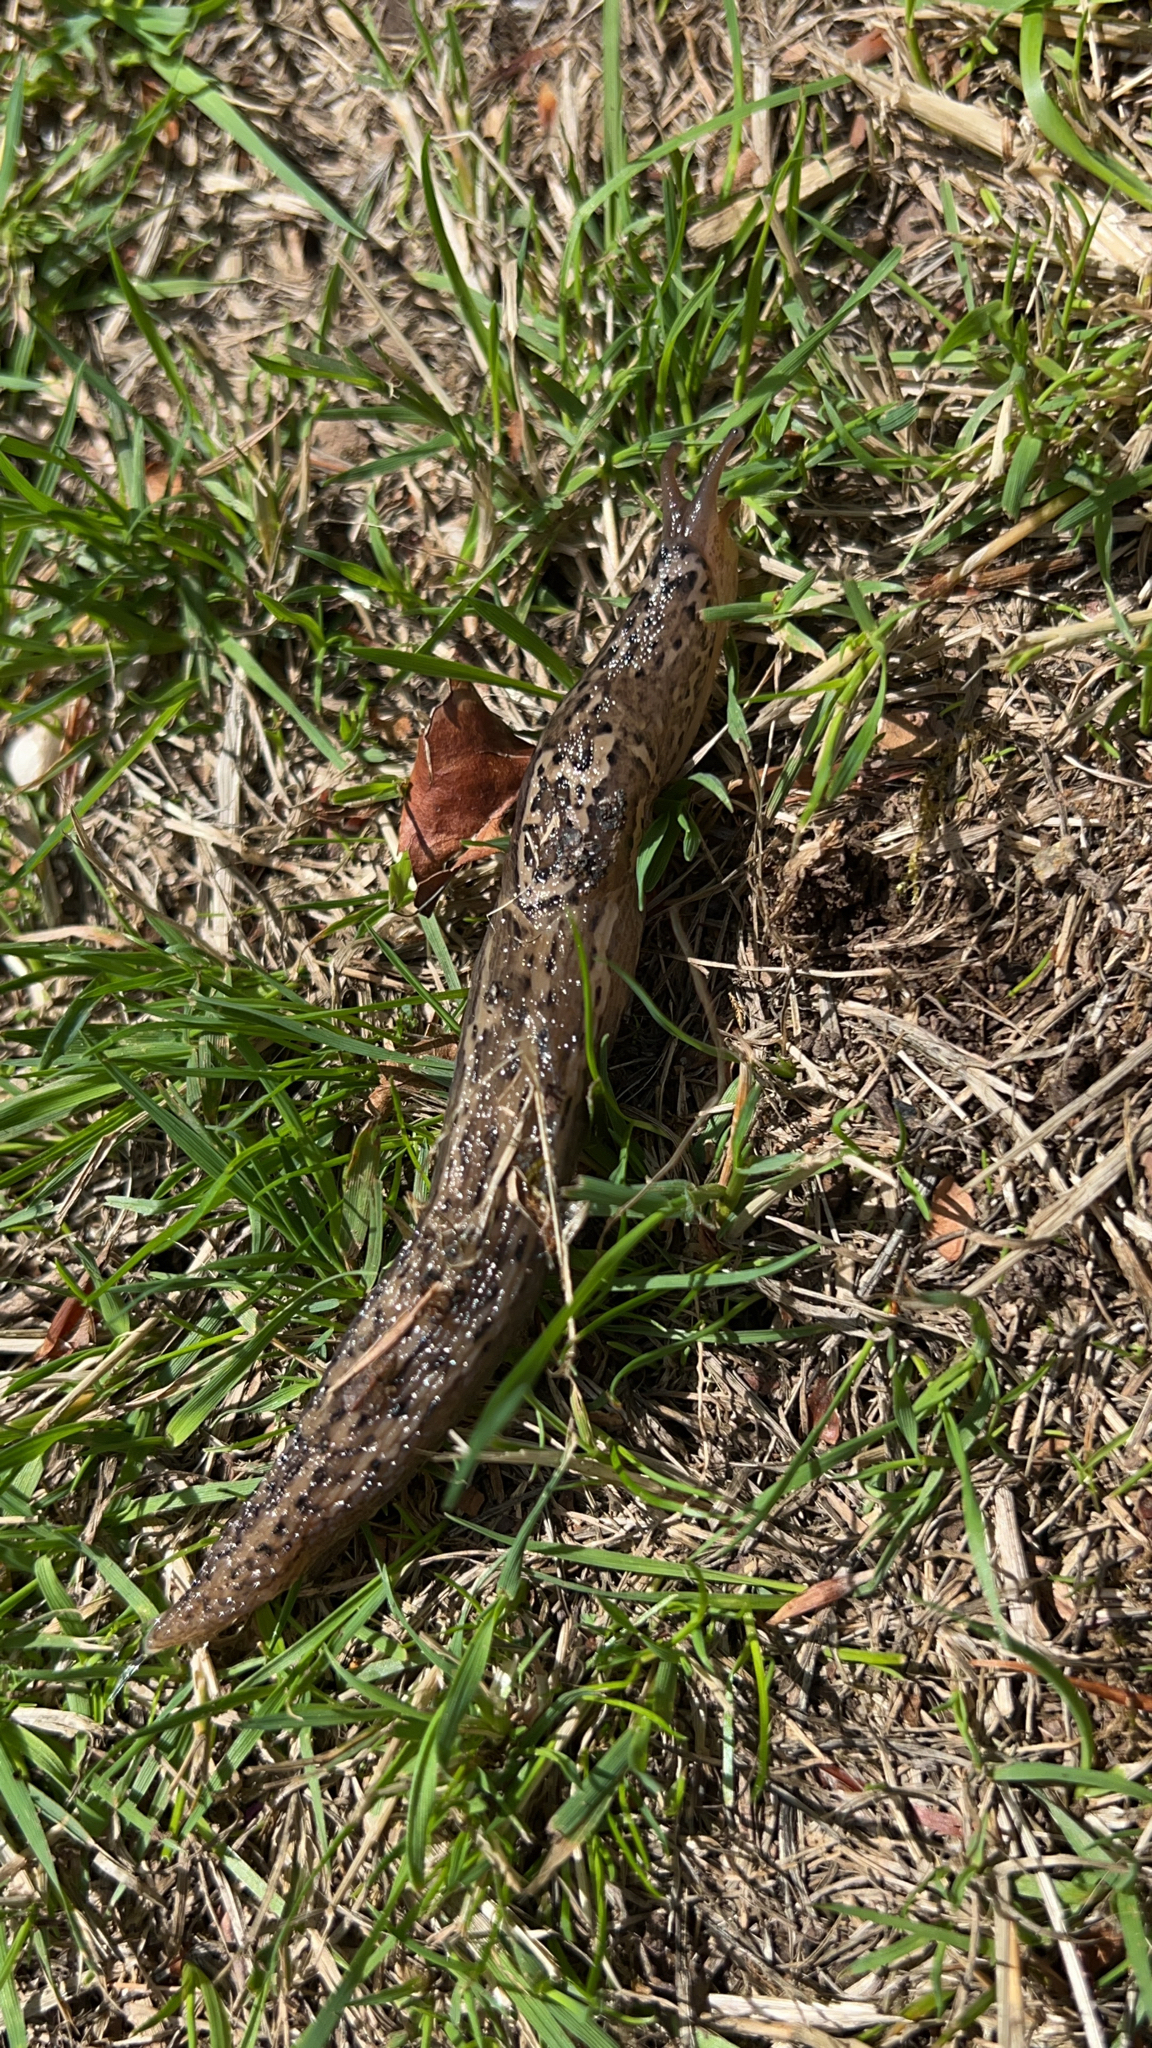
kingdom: Animalia
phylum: Mollusca
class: Gastropoda
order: Stylommatophora
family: Limacidae
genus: Limax
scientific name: Limax maximus
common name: Great grey slug
